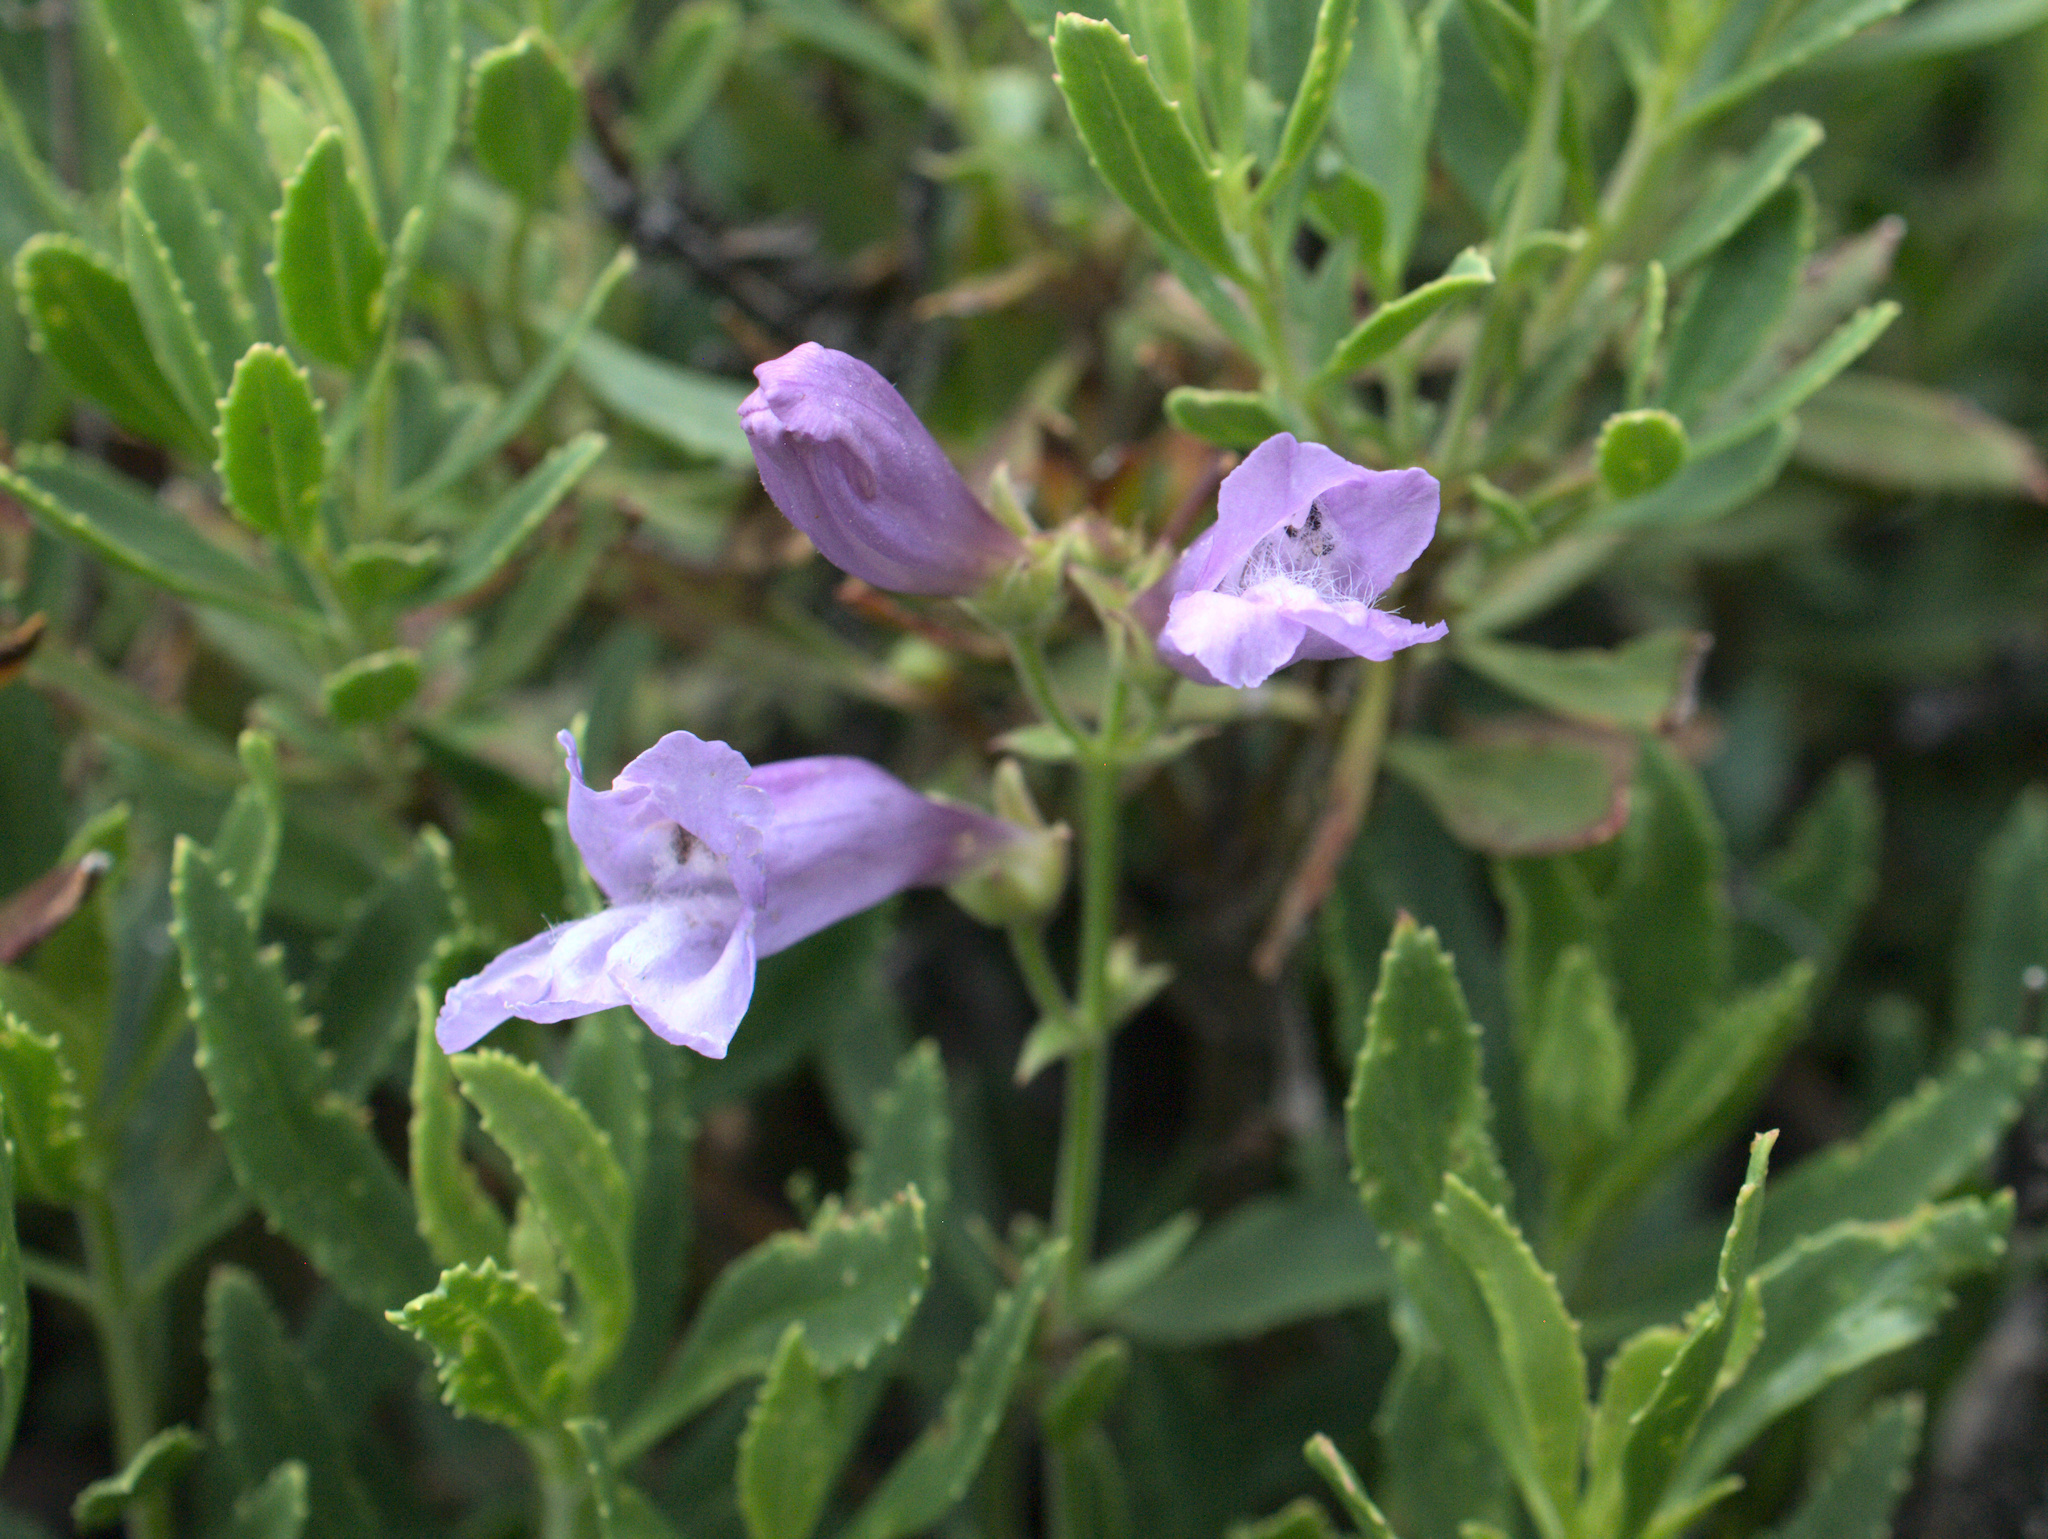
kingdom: Plantae
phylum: Tracheophyta
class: Magnoliopsida
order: Lamiales
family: Plantaginaceae
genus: Penstemon
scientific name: Penstemon fruticosus
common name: Bush penstemon
